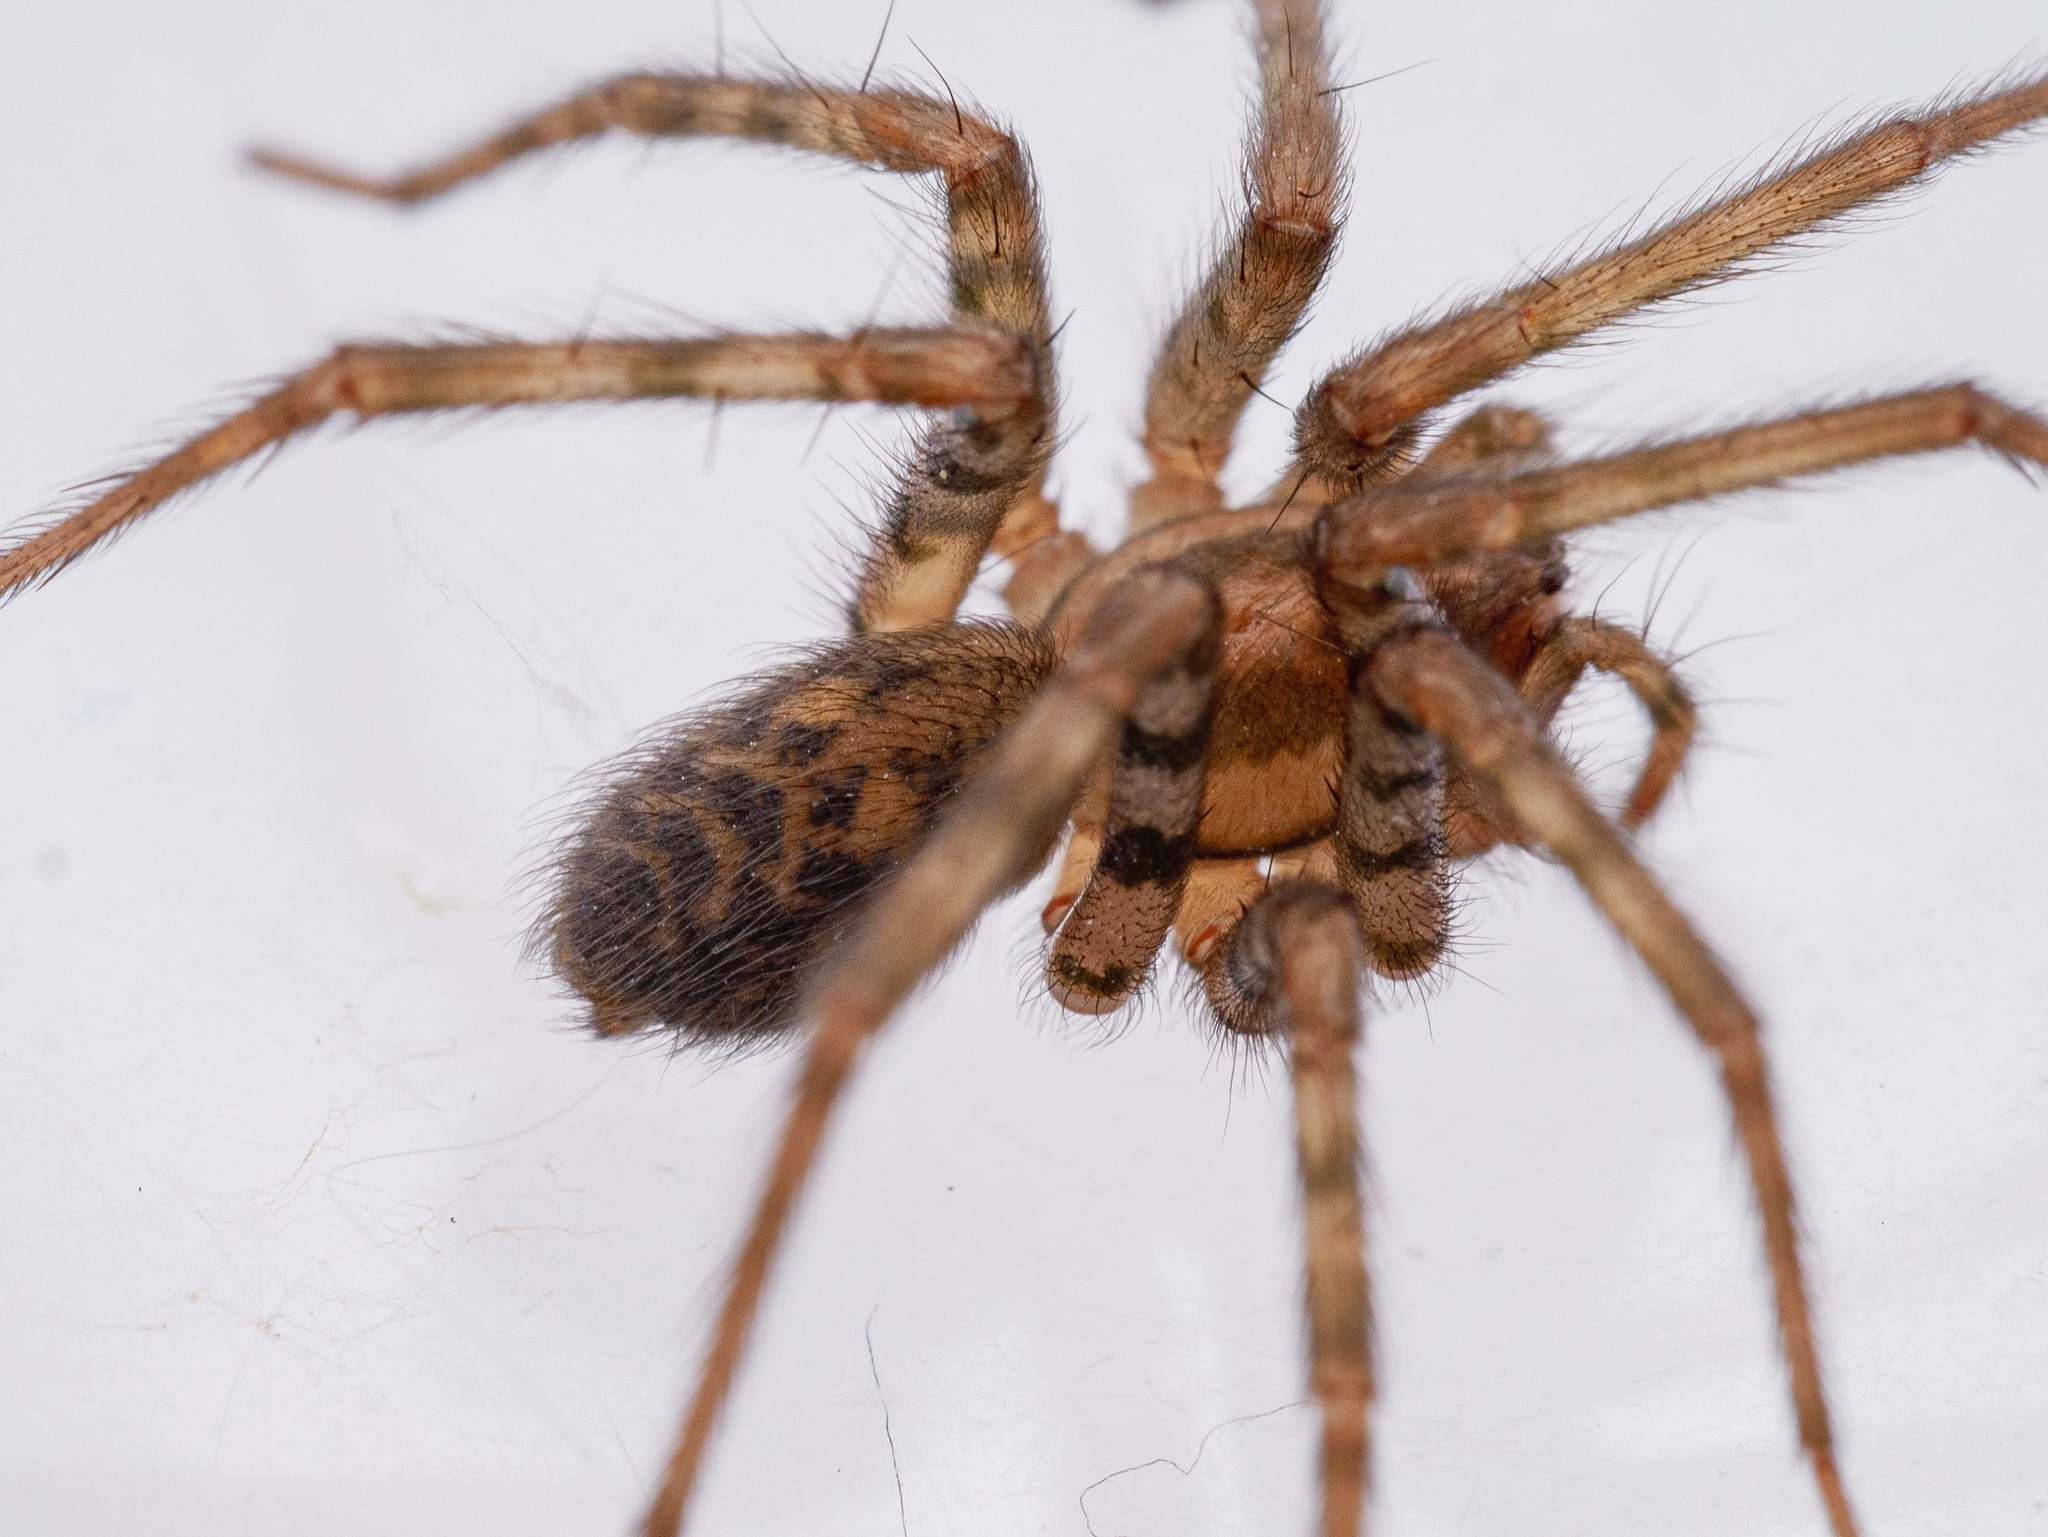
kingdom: Animalia
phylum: Arthropoda
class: Arachnida
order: Araneae
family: Agelenidae
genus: Tegenaria
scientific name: Tegenaria domestica
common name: Barn funnel weaver
